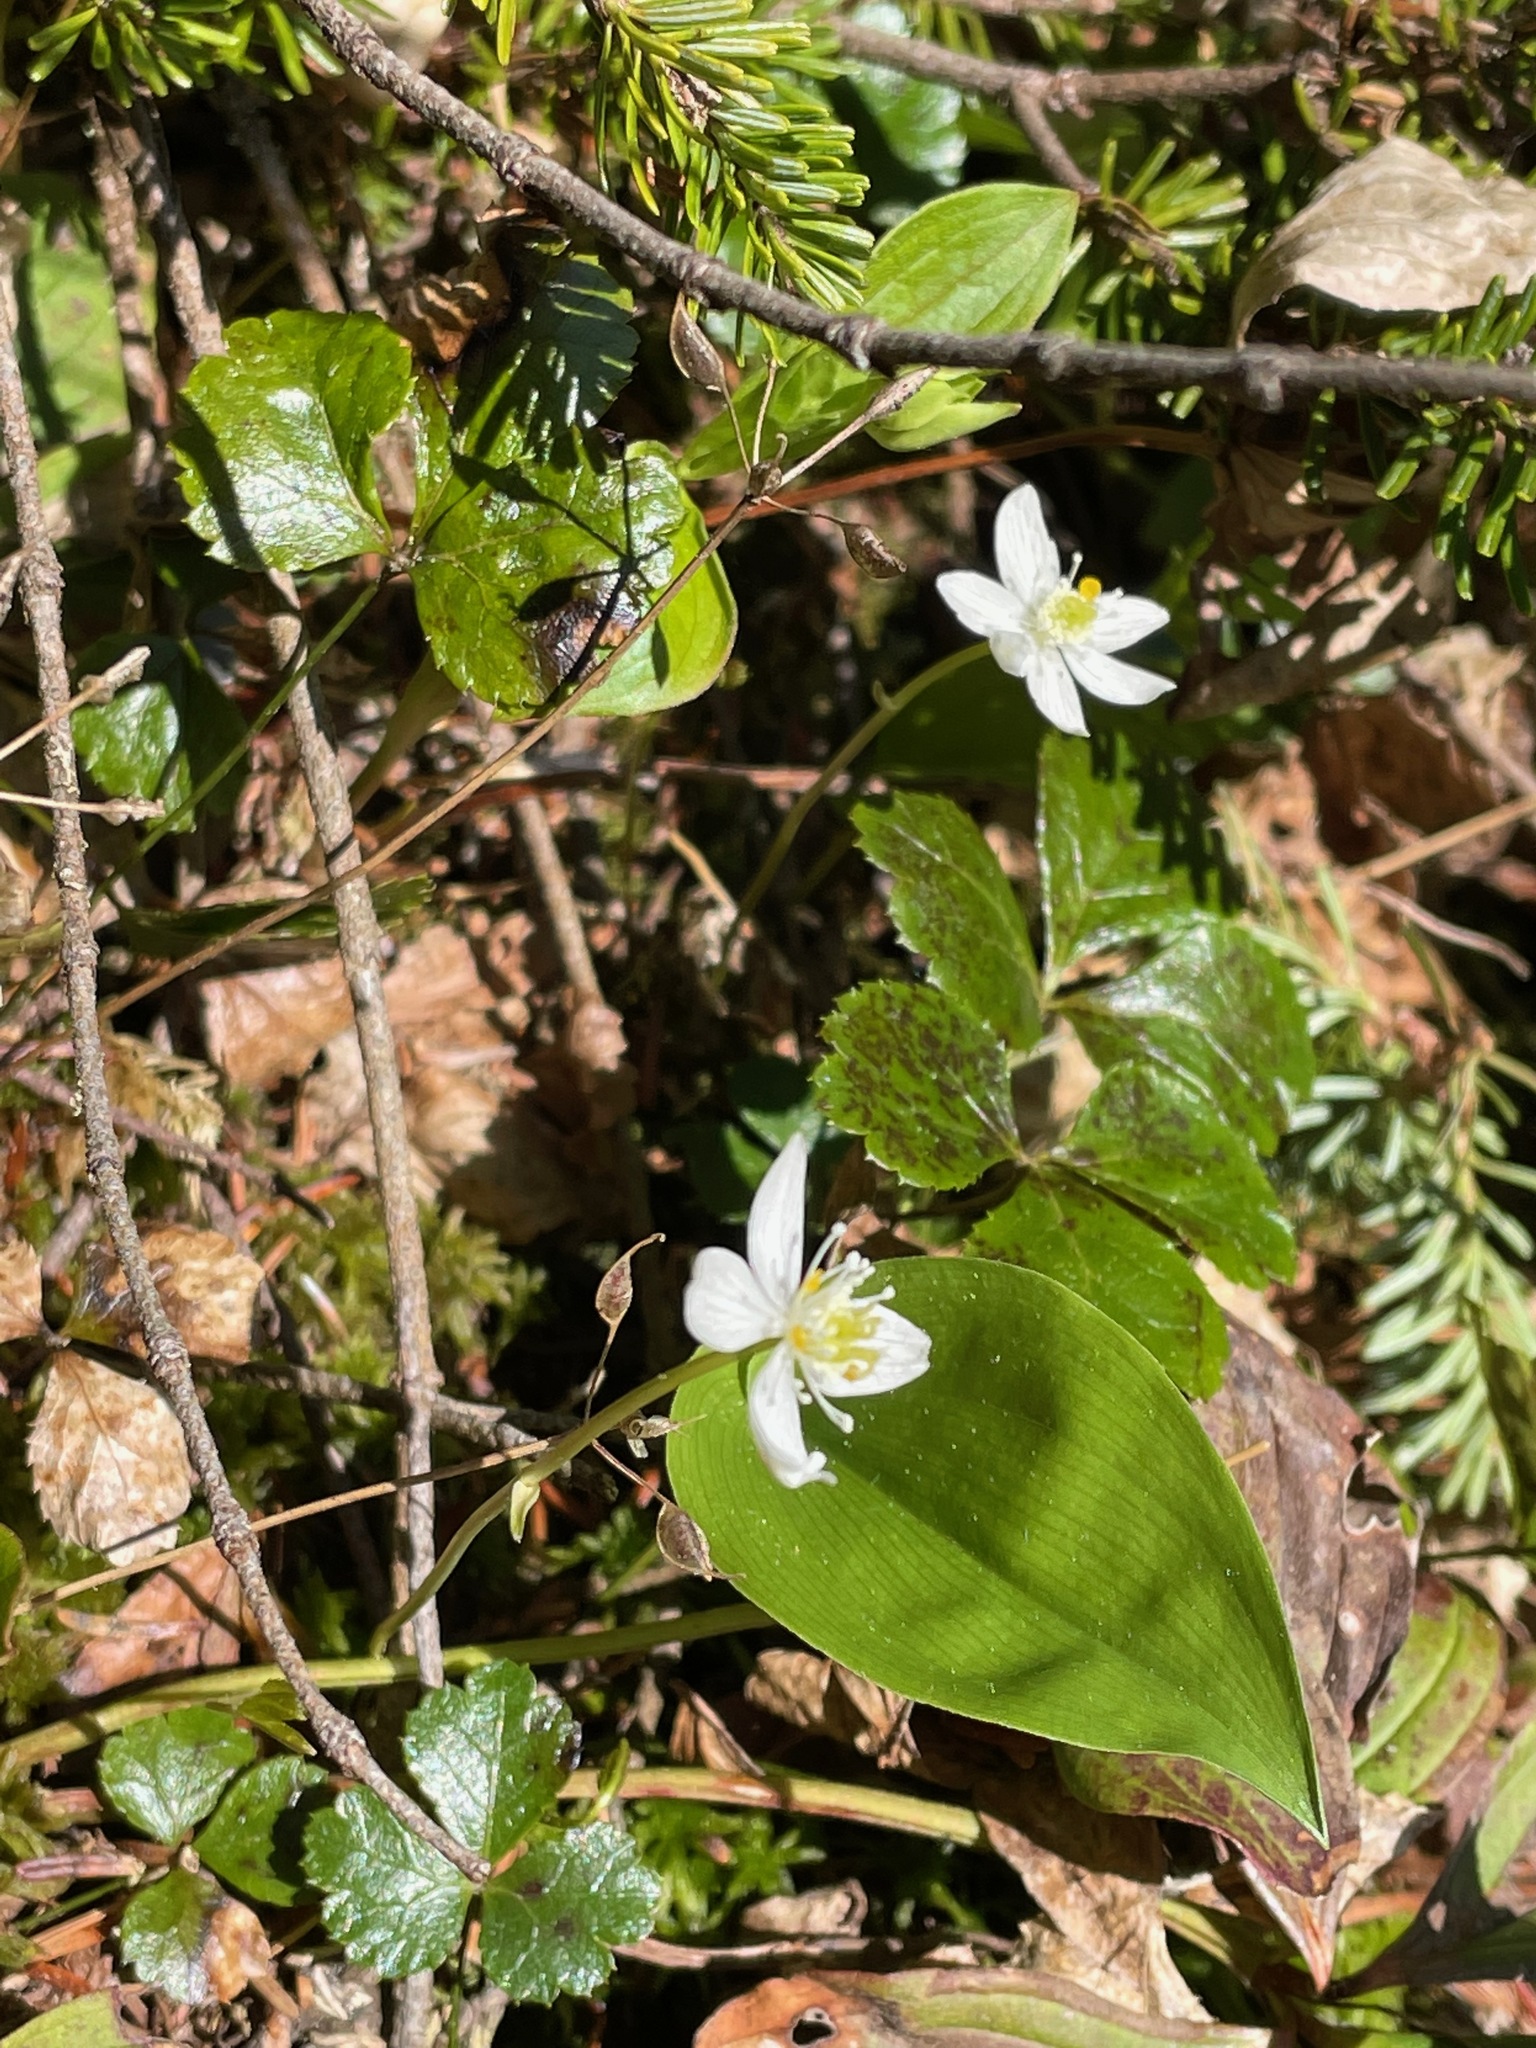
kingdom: Plantae
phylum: Tracheophyta
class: Magnoliopsida
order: Ranunculales
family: Ranunculaceae
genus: Coptis
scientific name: Coptis trifolia
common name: Canker-root
